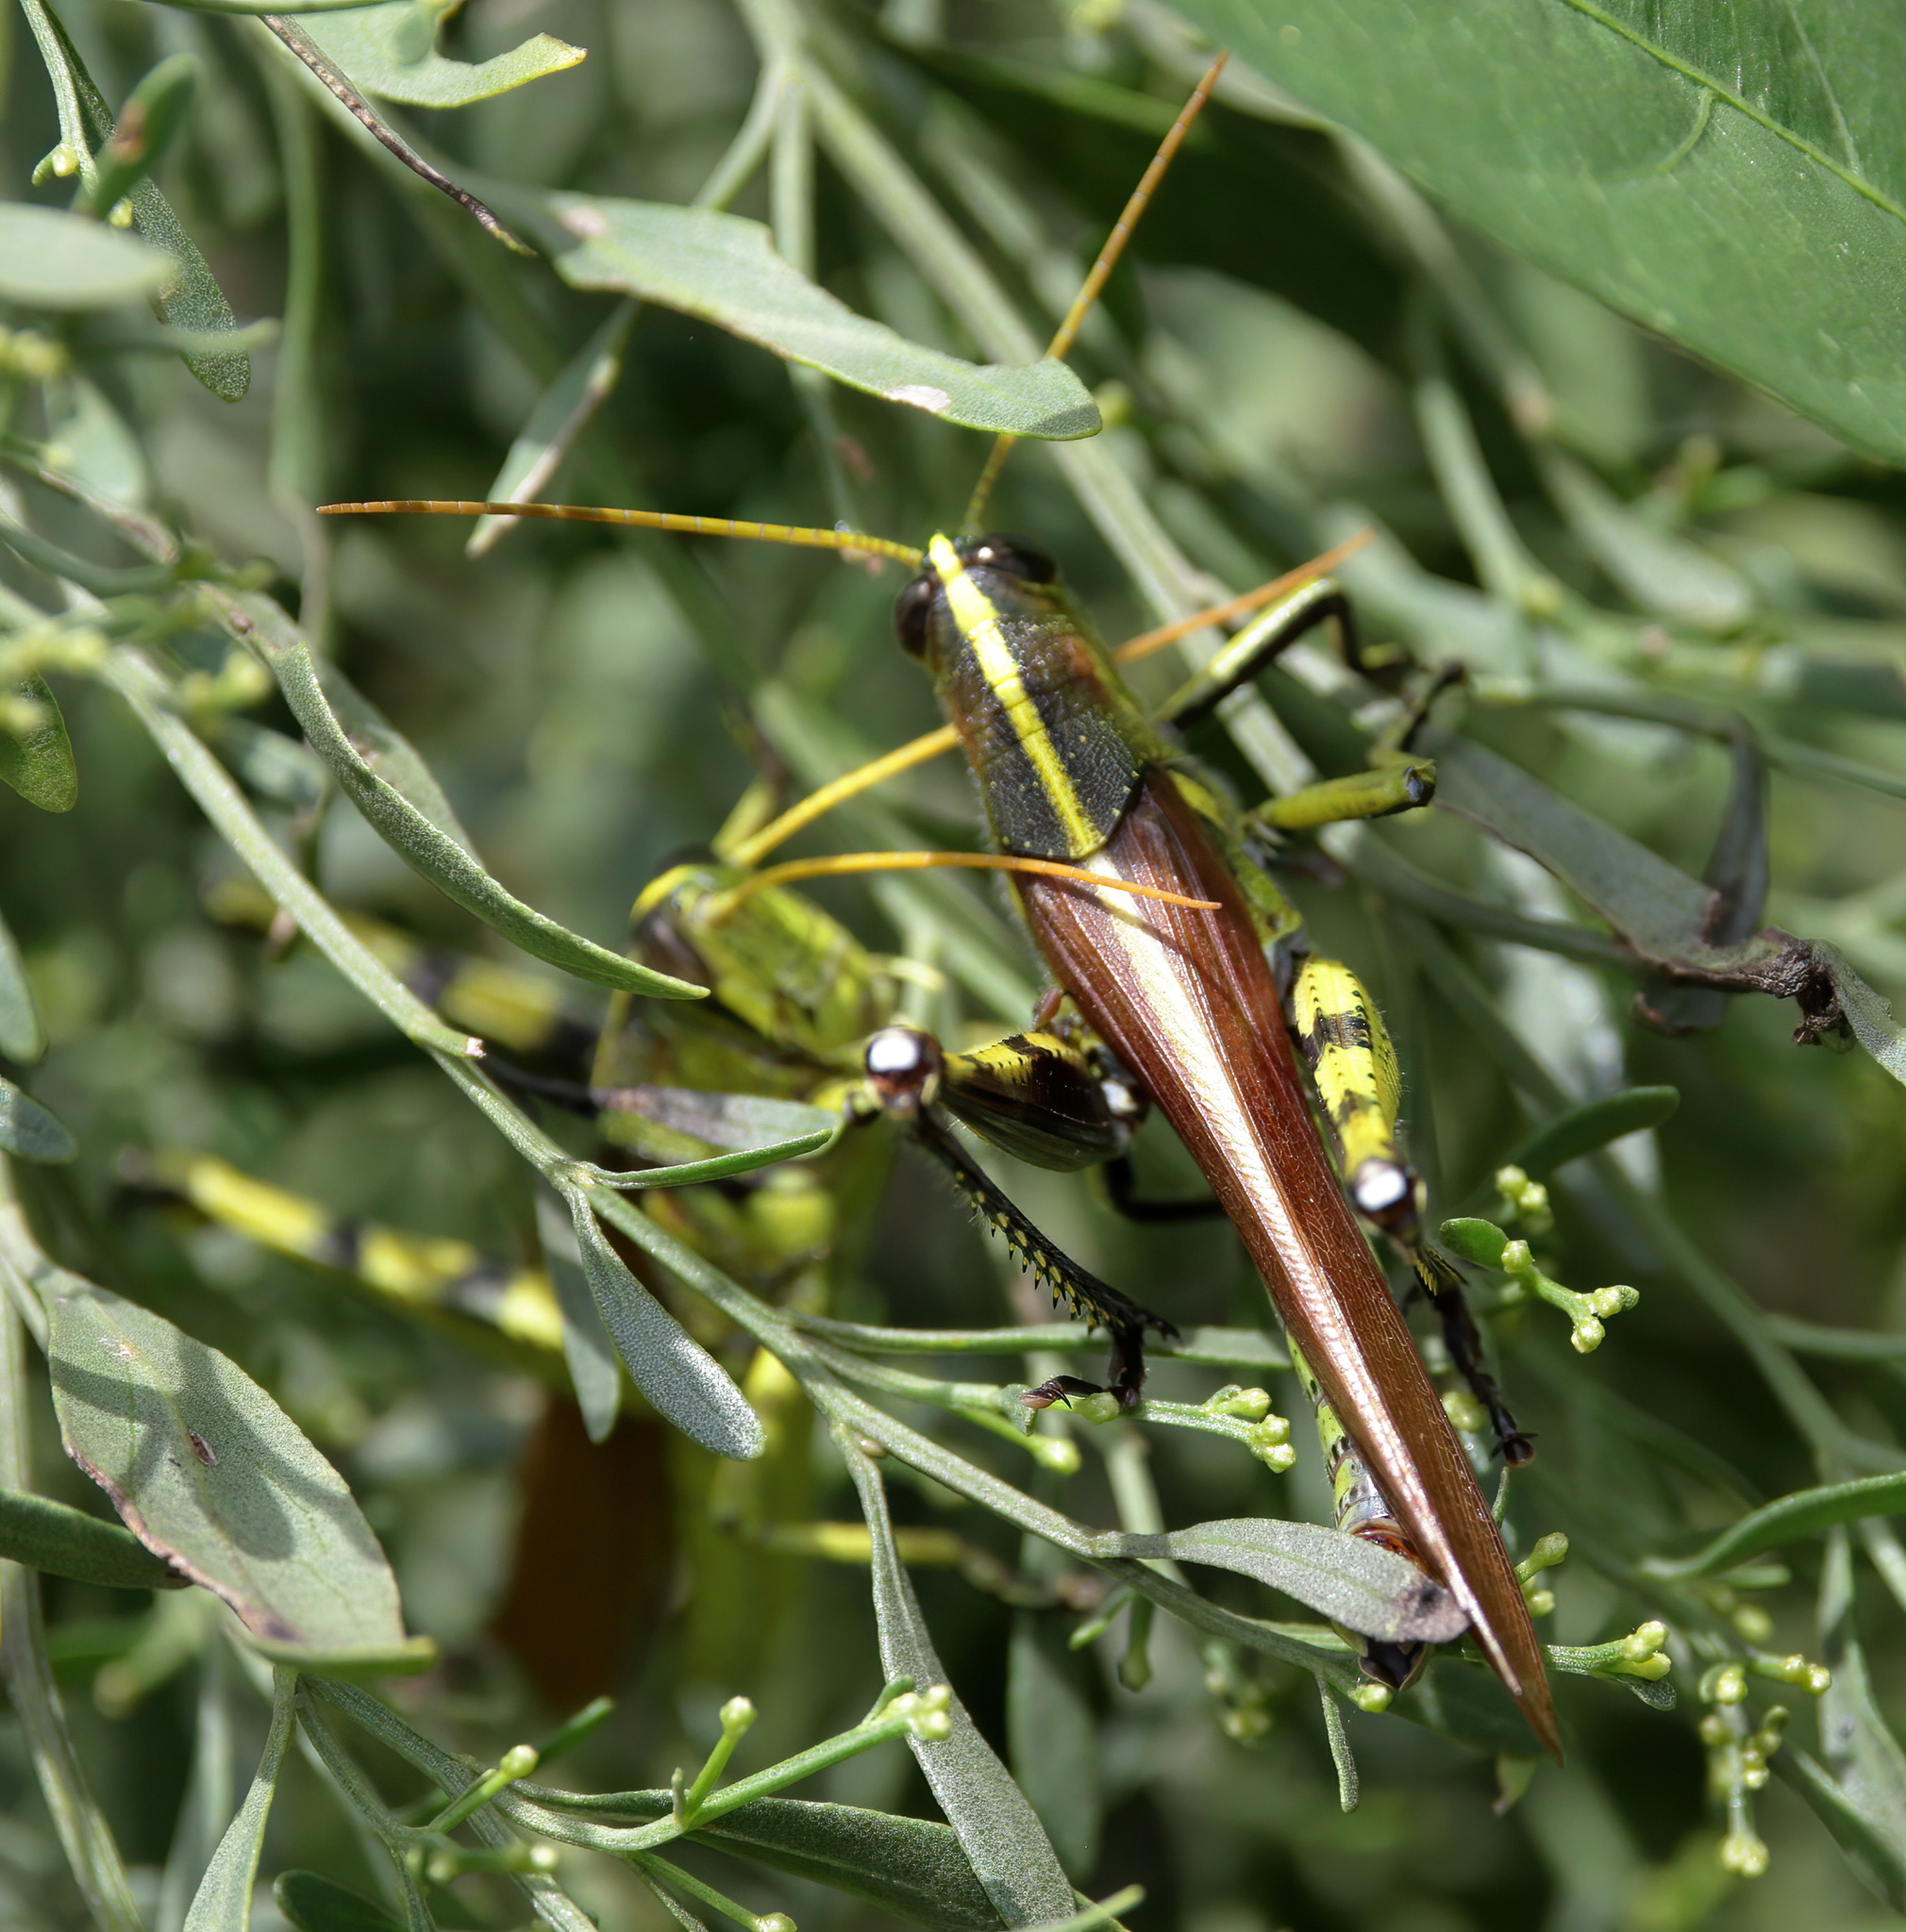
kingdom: Animalia
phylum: Arthropoda
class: Insecta
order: Orthoptera
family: Acrididae
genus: Schistocerca
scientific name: Schistocerca obscura
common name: Obscure bird grasshopper
